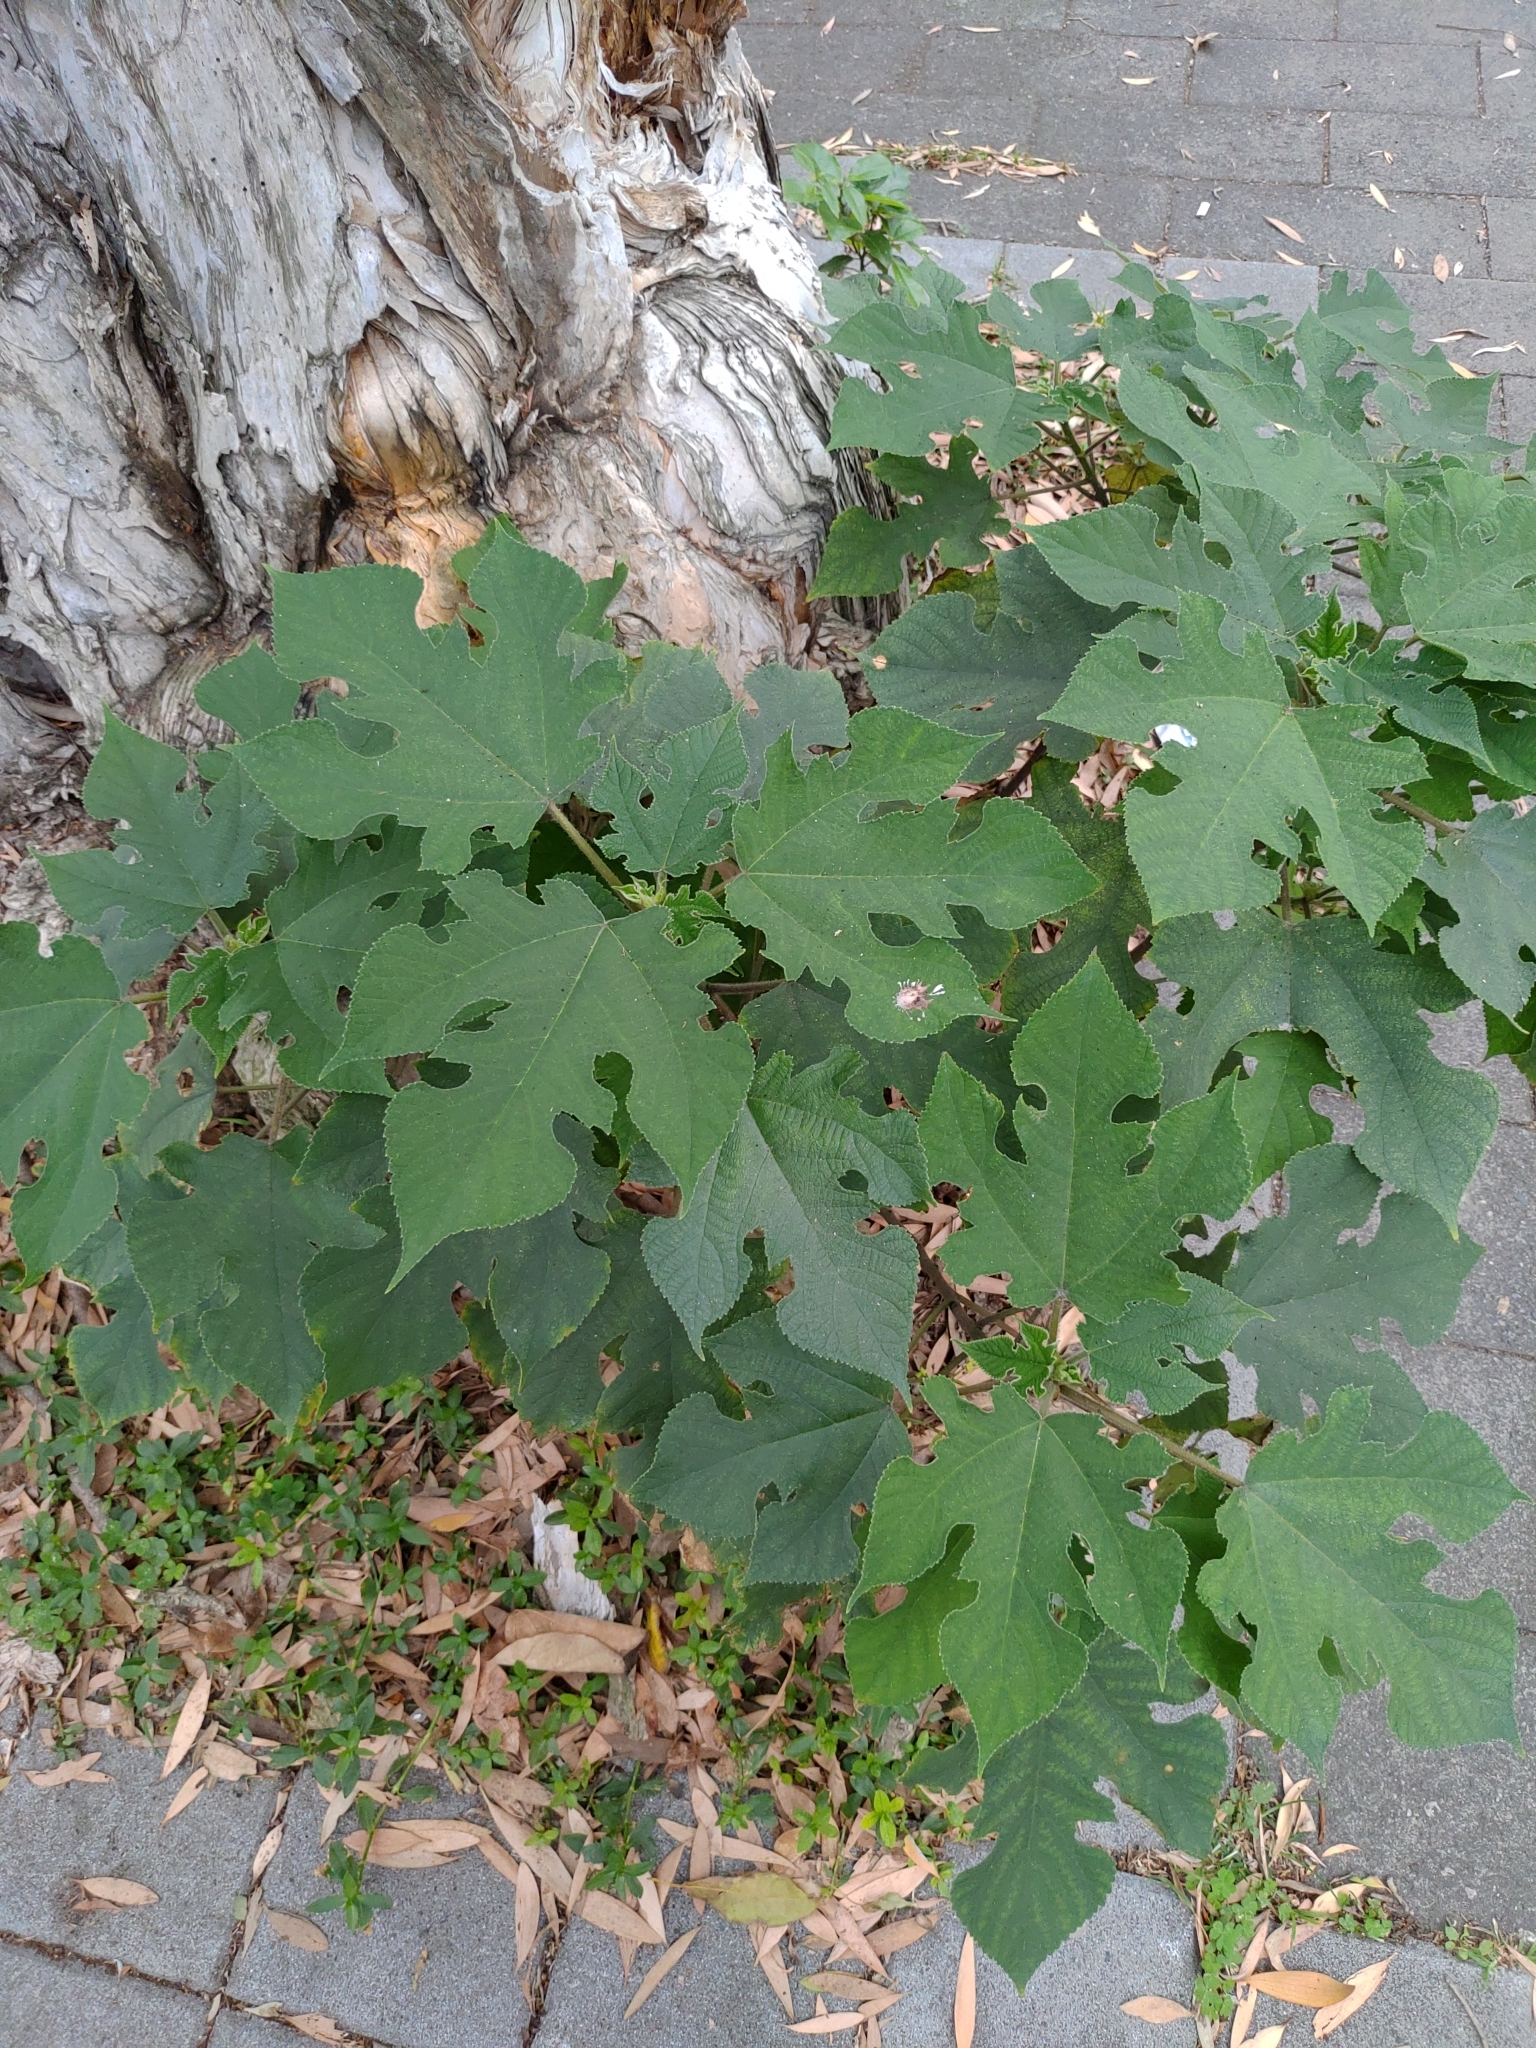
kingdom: Plantae
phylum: Tracheophyta
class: Magnoliopsida
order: Rosales
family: Moraceae
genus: Broussonetia
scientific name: Broussonetia papyrifera
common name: Paper mulberry
